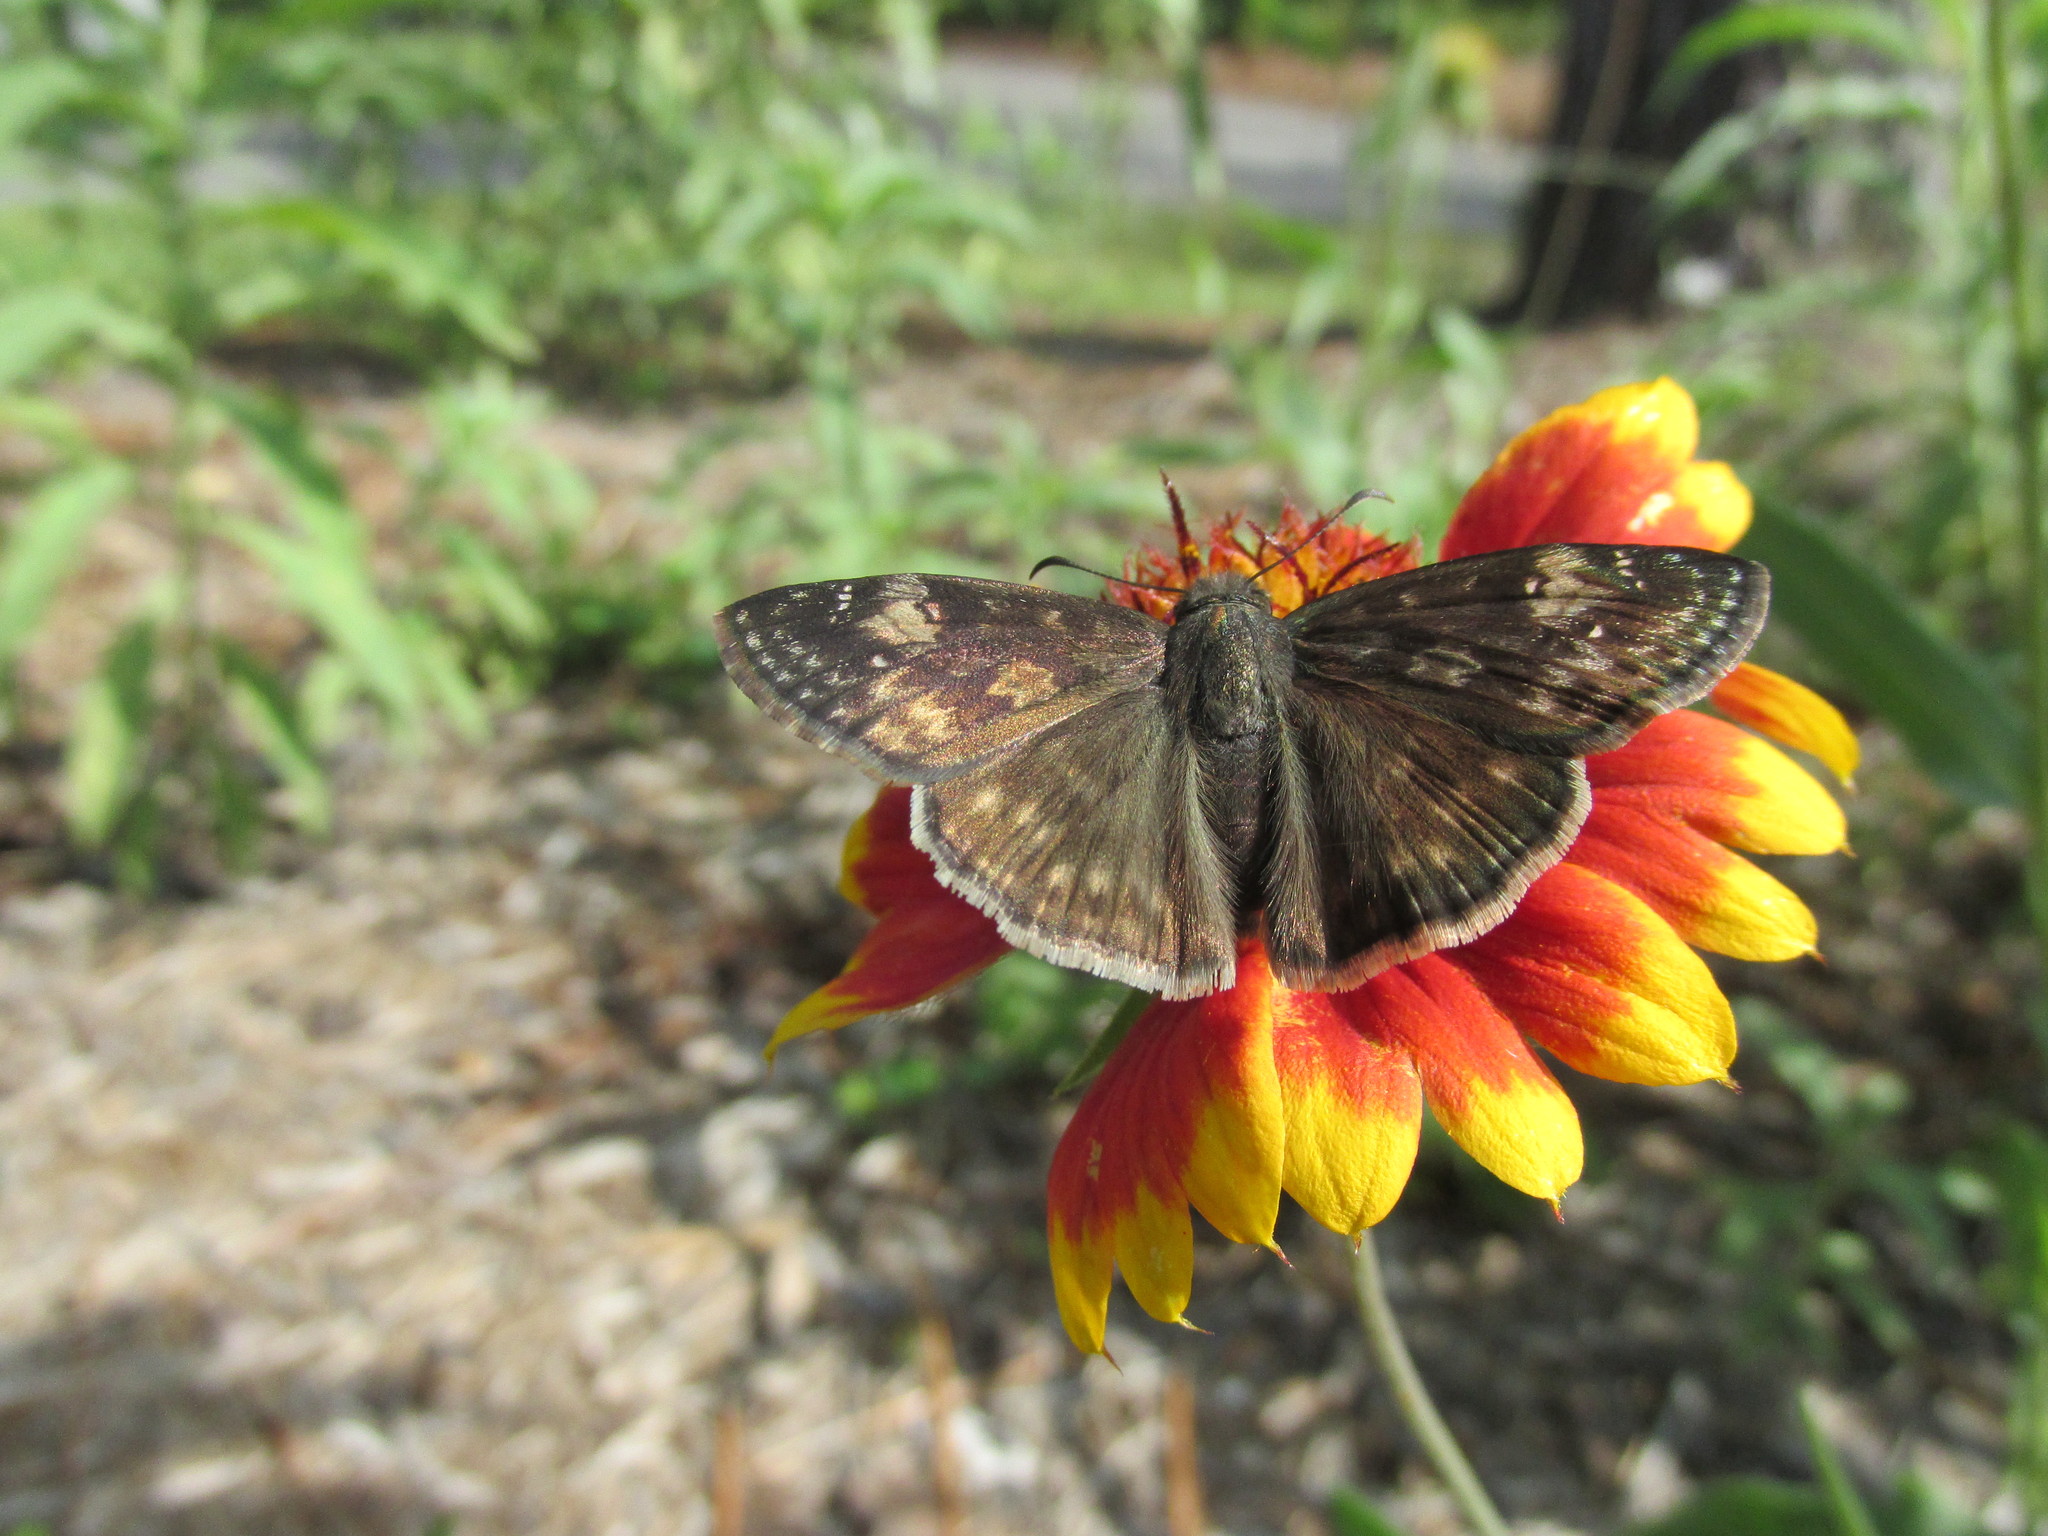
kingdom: Animalia
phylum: Arthropoda
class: Insecta
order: Lepidoptera
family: Hesperiidae
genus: Erynnis
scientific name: Erynnis zarucco
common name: Zarucco duskywing
